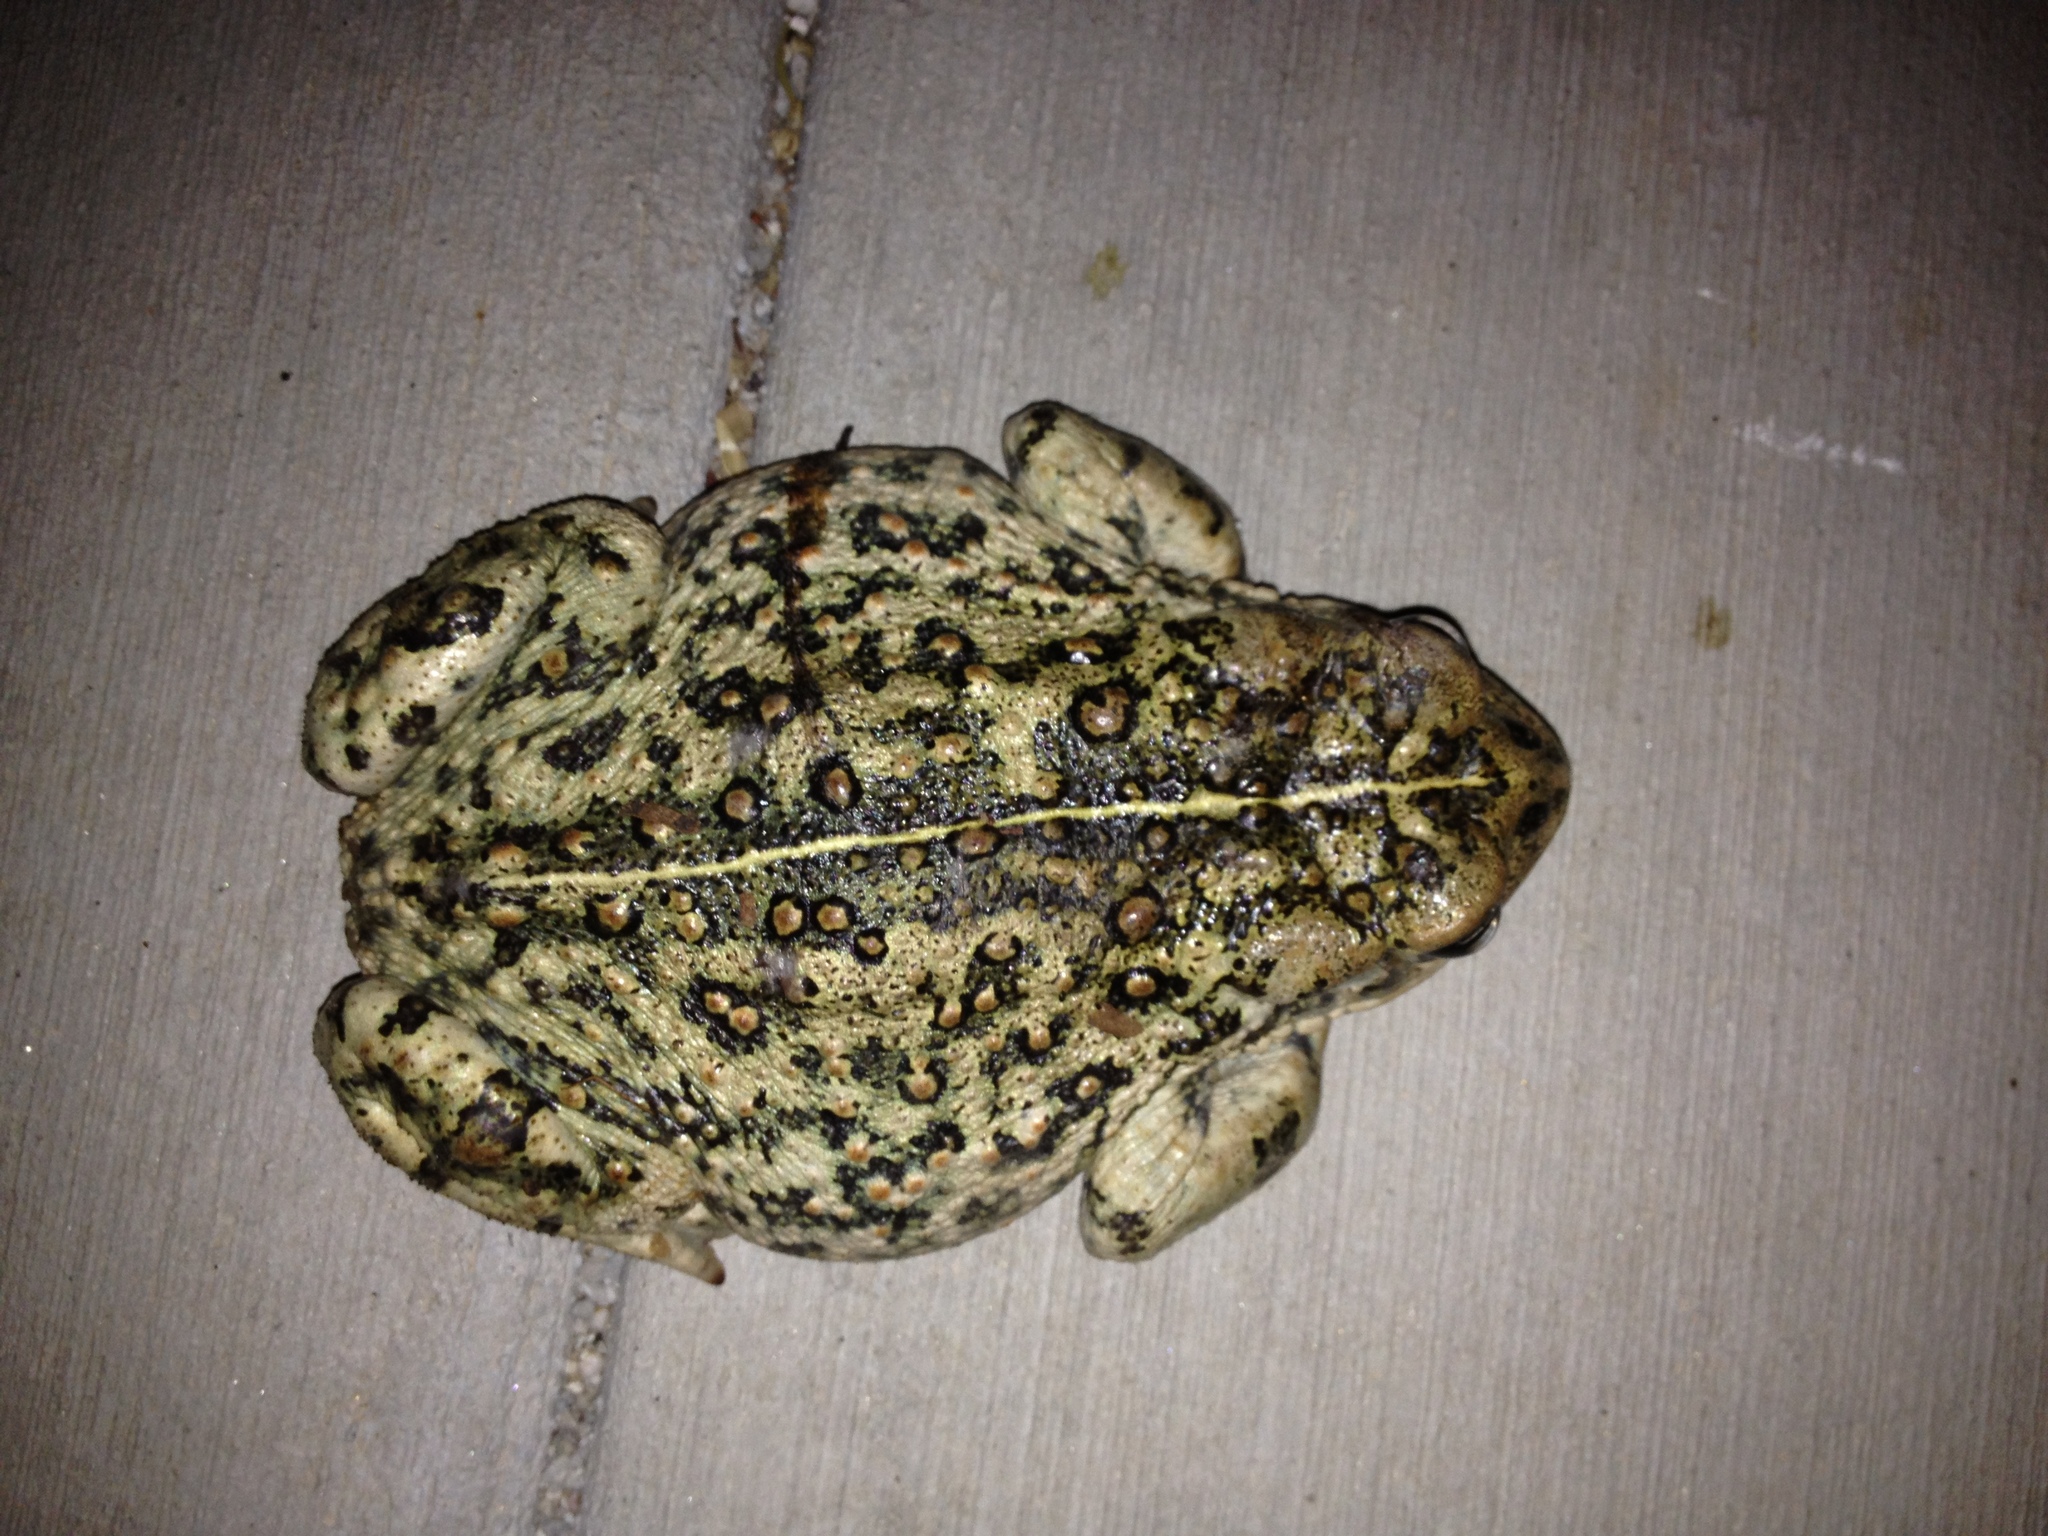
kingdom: Animalia
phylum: Chordata
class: Amphibia
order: Anura
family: Bufonidae
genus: Anaxyrus
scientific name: Anaxyrus boreas
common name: Western toad
